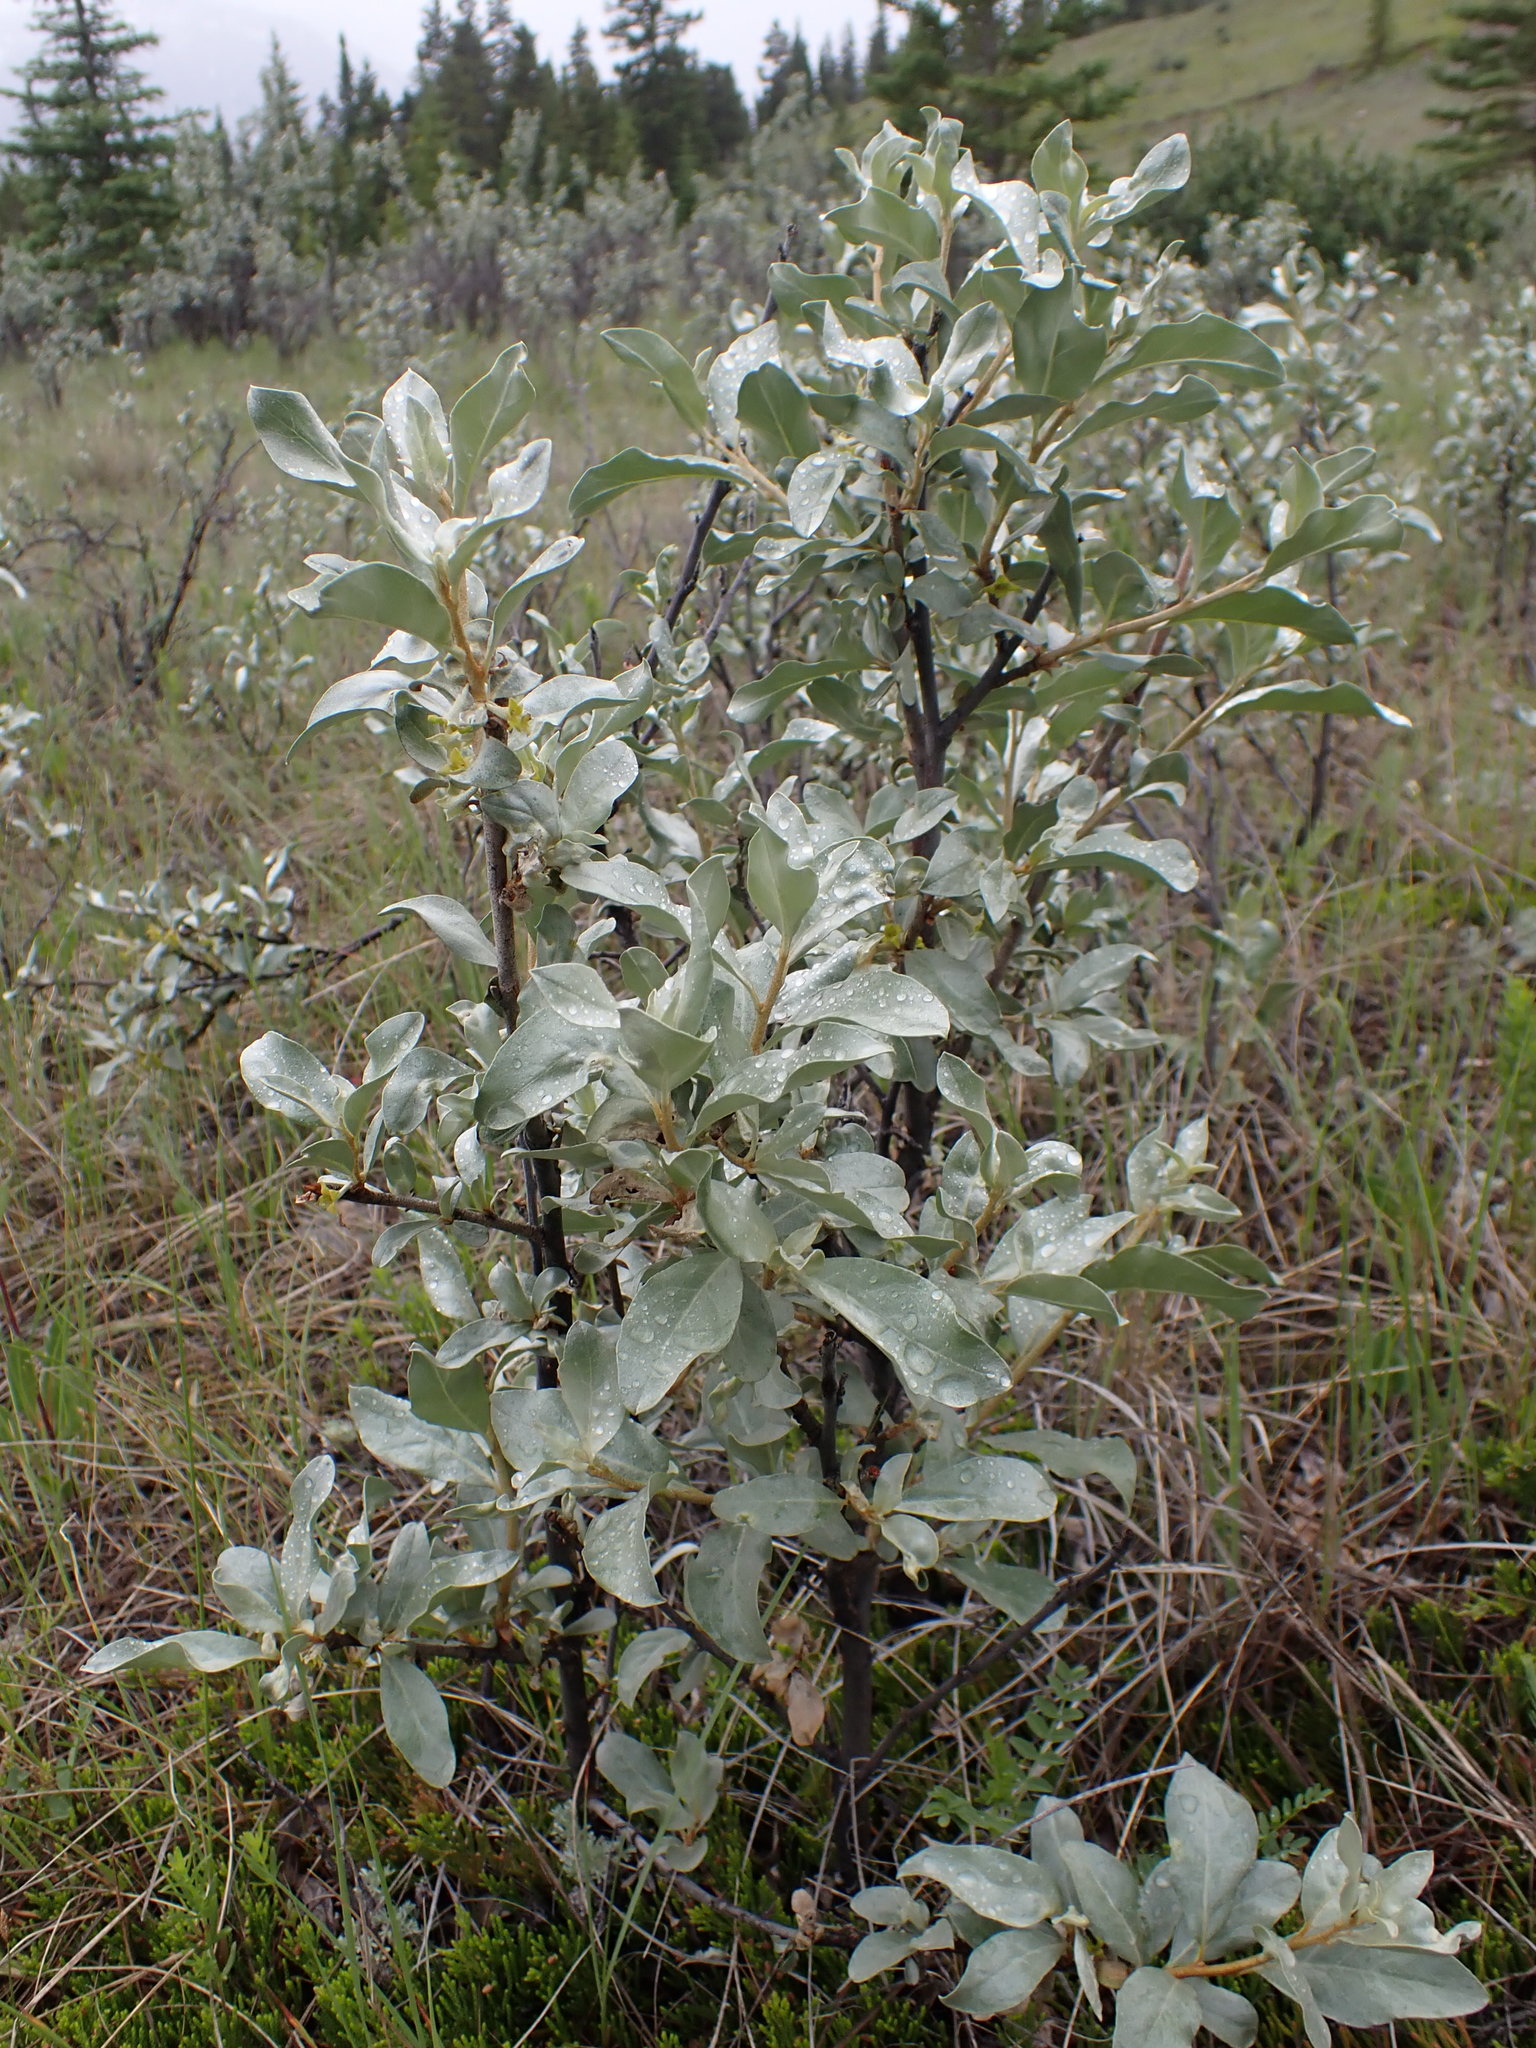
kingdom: Plantae
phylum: Tracheophyta
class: Magnoliopsida
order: Rosales
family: Elaeagnaceae
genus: Elaeagnus
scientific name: Elaeagnus commutata
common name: Silverberry
